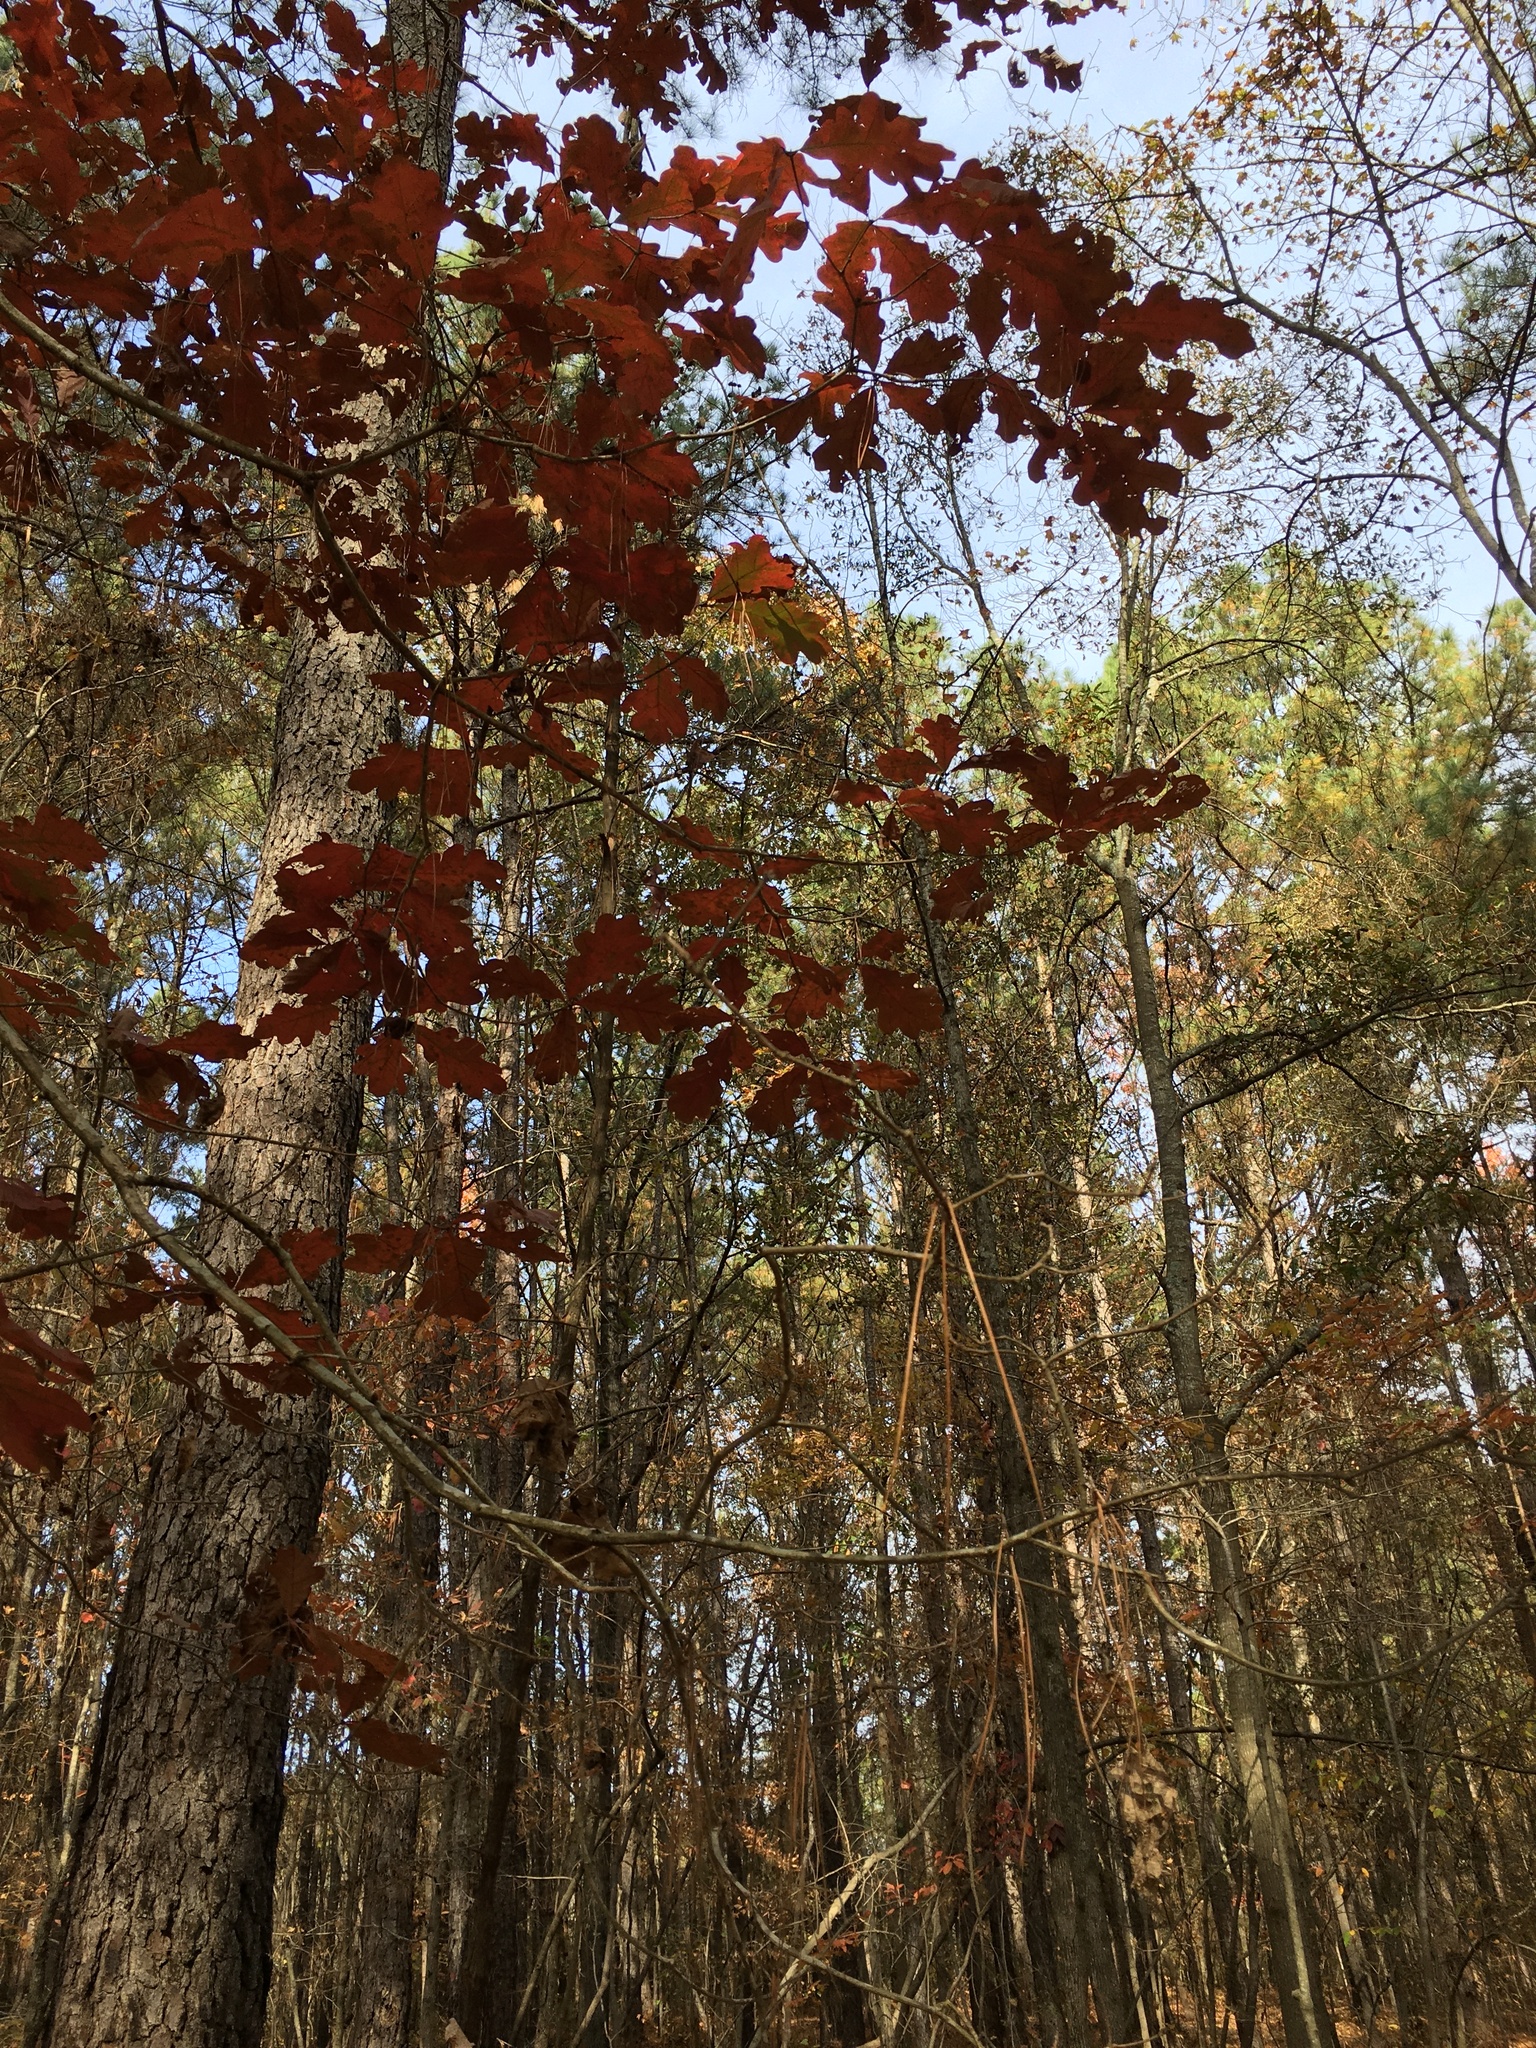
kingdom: Plantae
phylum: Tracheophyta
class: Magnoliopsida
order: Fagales
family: Fagaceae
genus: Quercus
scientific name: Quercus alba
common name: White oak
